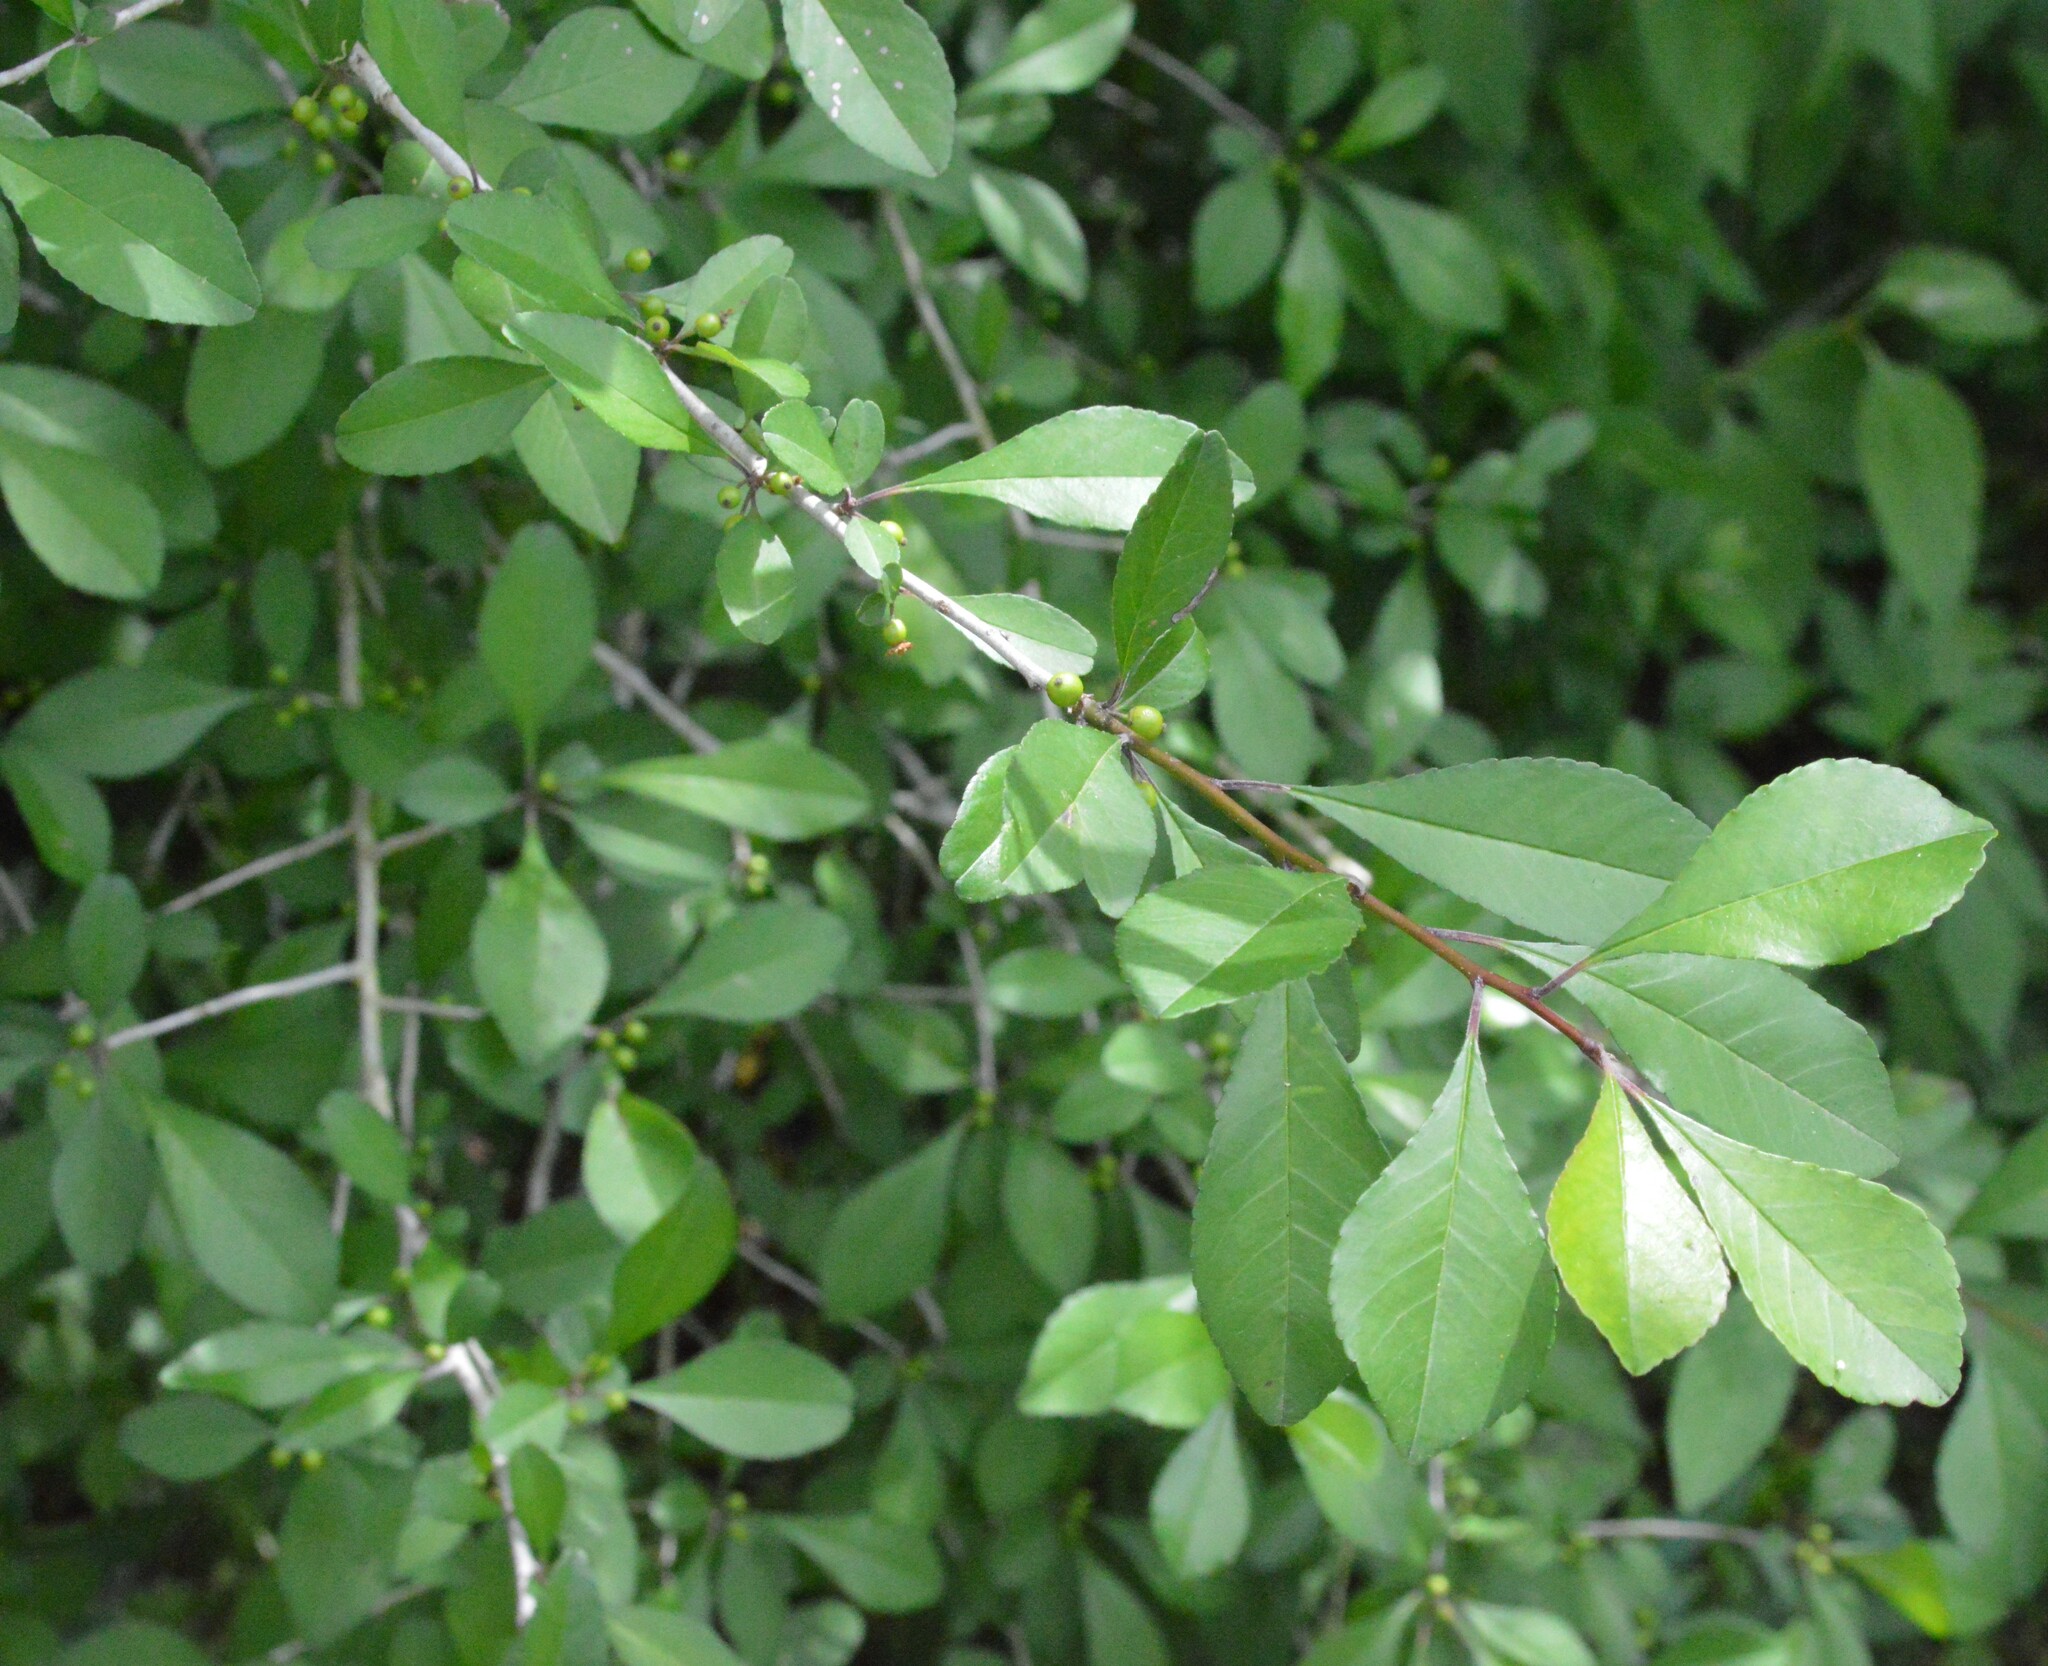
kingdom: Plantae
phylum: Tracheophyta
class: Magnoliopsida
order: Aquifoliales
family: Aquifoliaceae
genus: Ilex
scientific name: Ilex decidua
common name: Possum-haw
